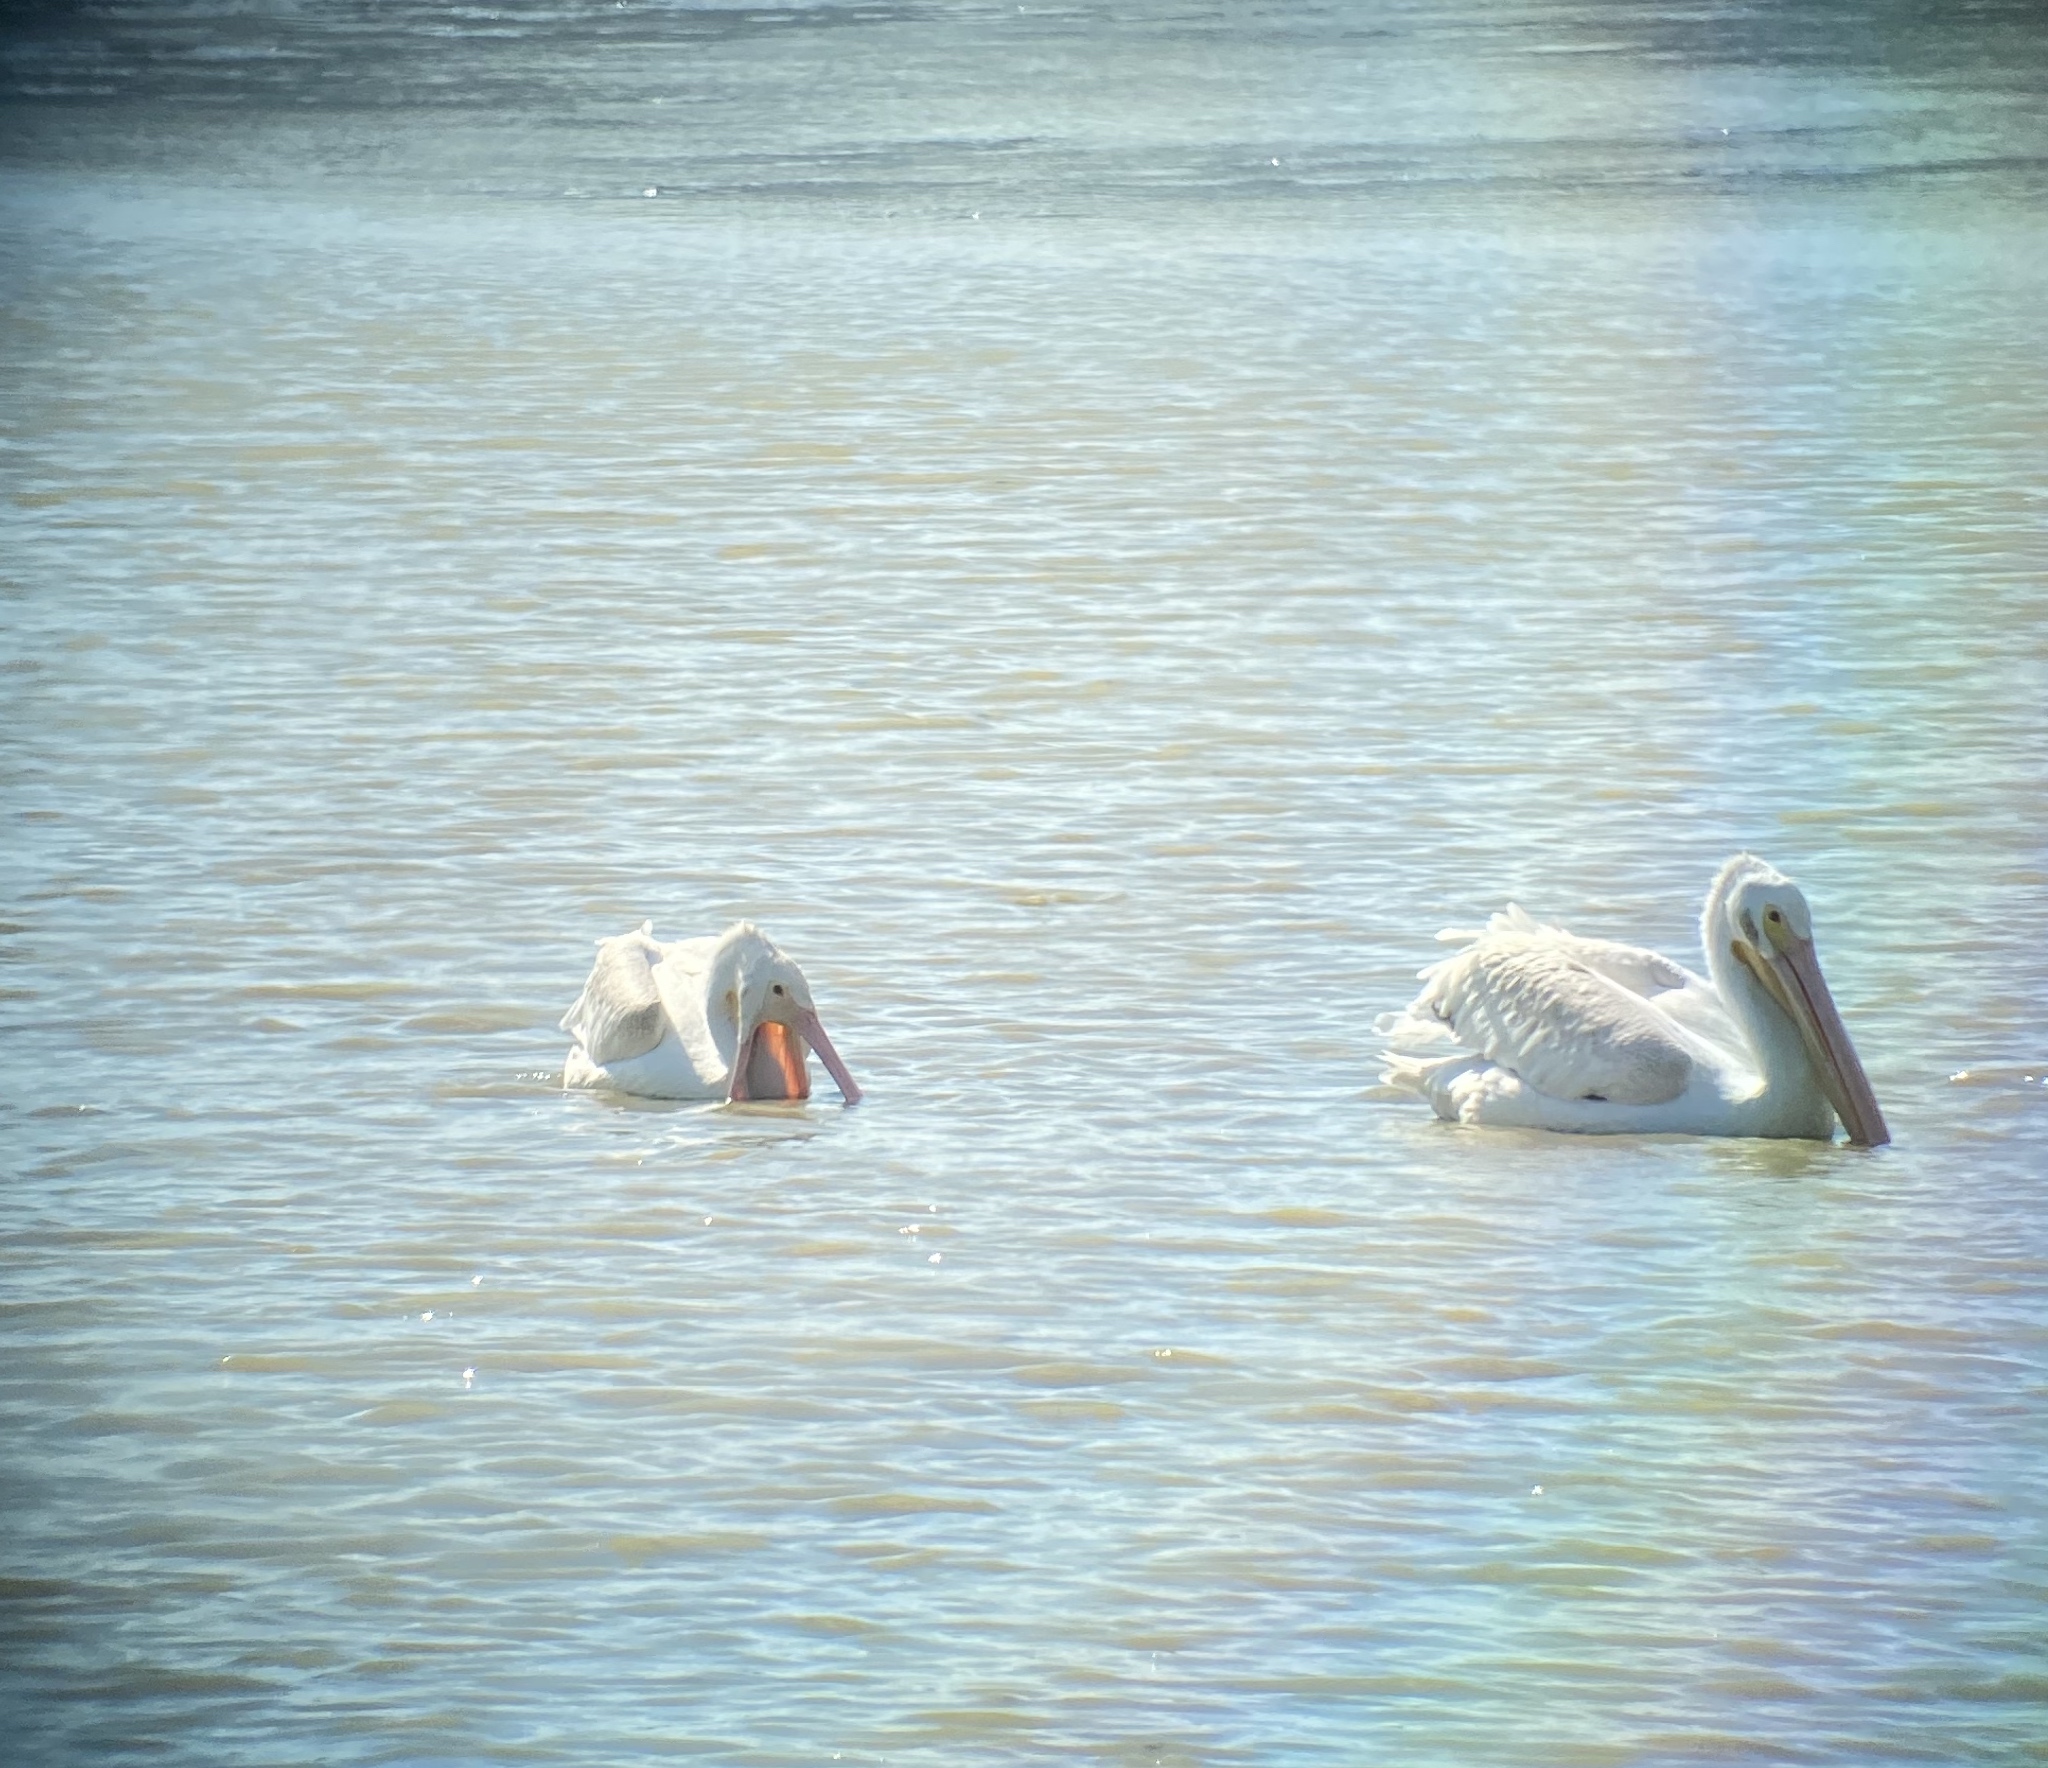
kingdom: Animalia
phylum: Chordata
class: Aves
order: Pelecaniformes
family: Pelecanidae
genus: Pelecanus
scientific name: Pelecanus erythrorhynchos
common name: American white pelican
